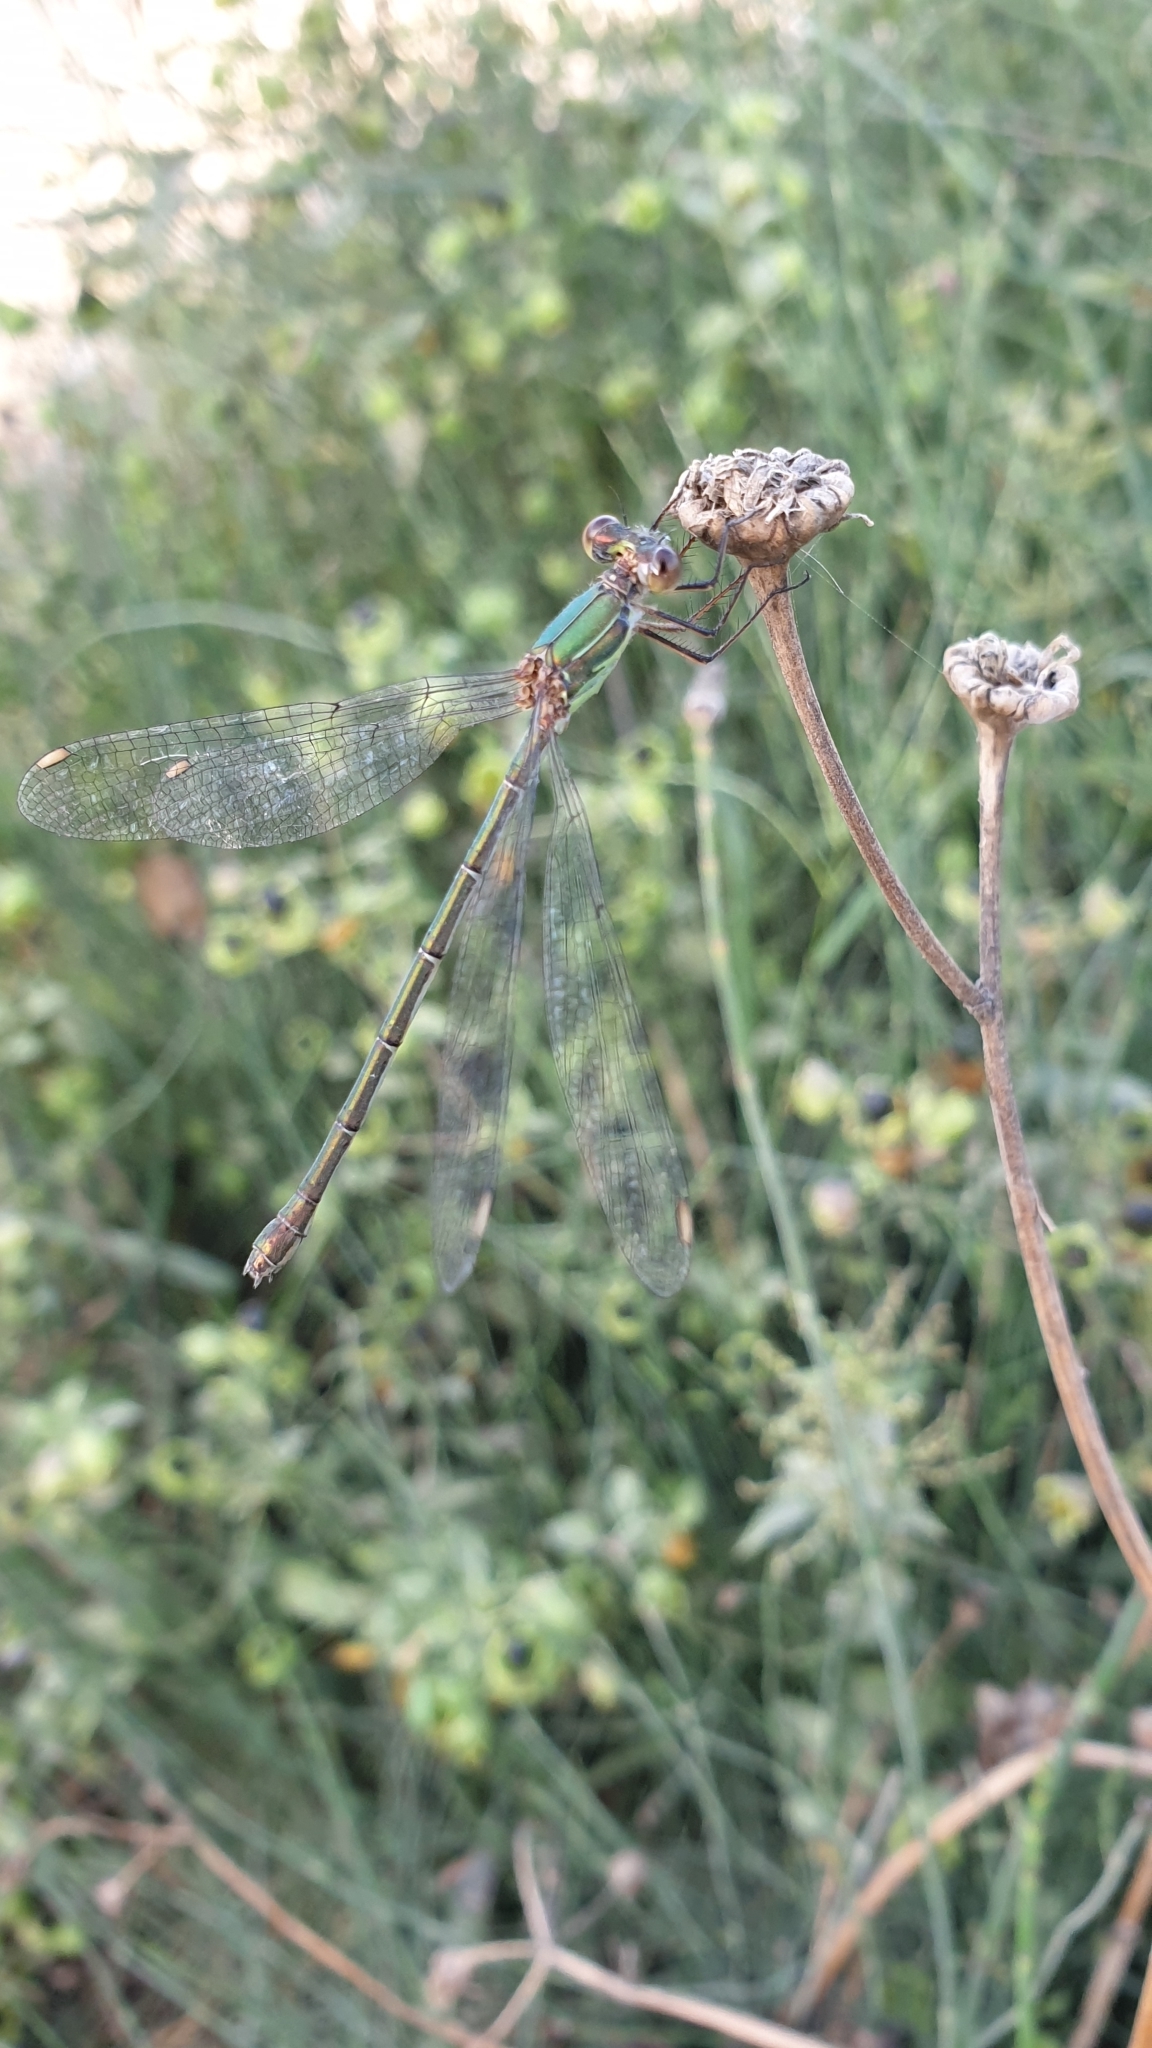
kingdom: Animalia
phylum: Arthropoda
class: Insecta
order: Odonata
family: Lestidae
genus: Chalcolestes
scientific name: Chalcolestes viridis
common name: Green emerald damselfly
